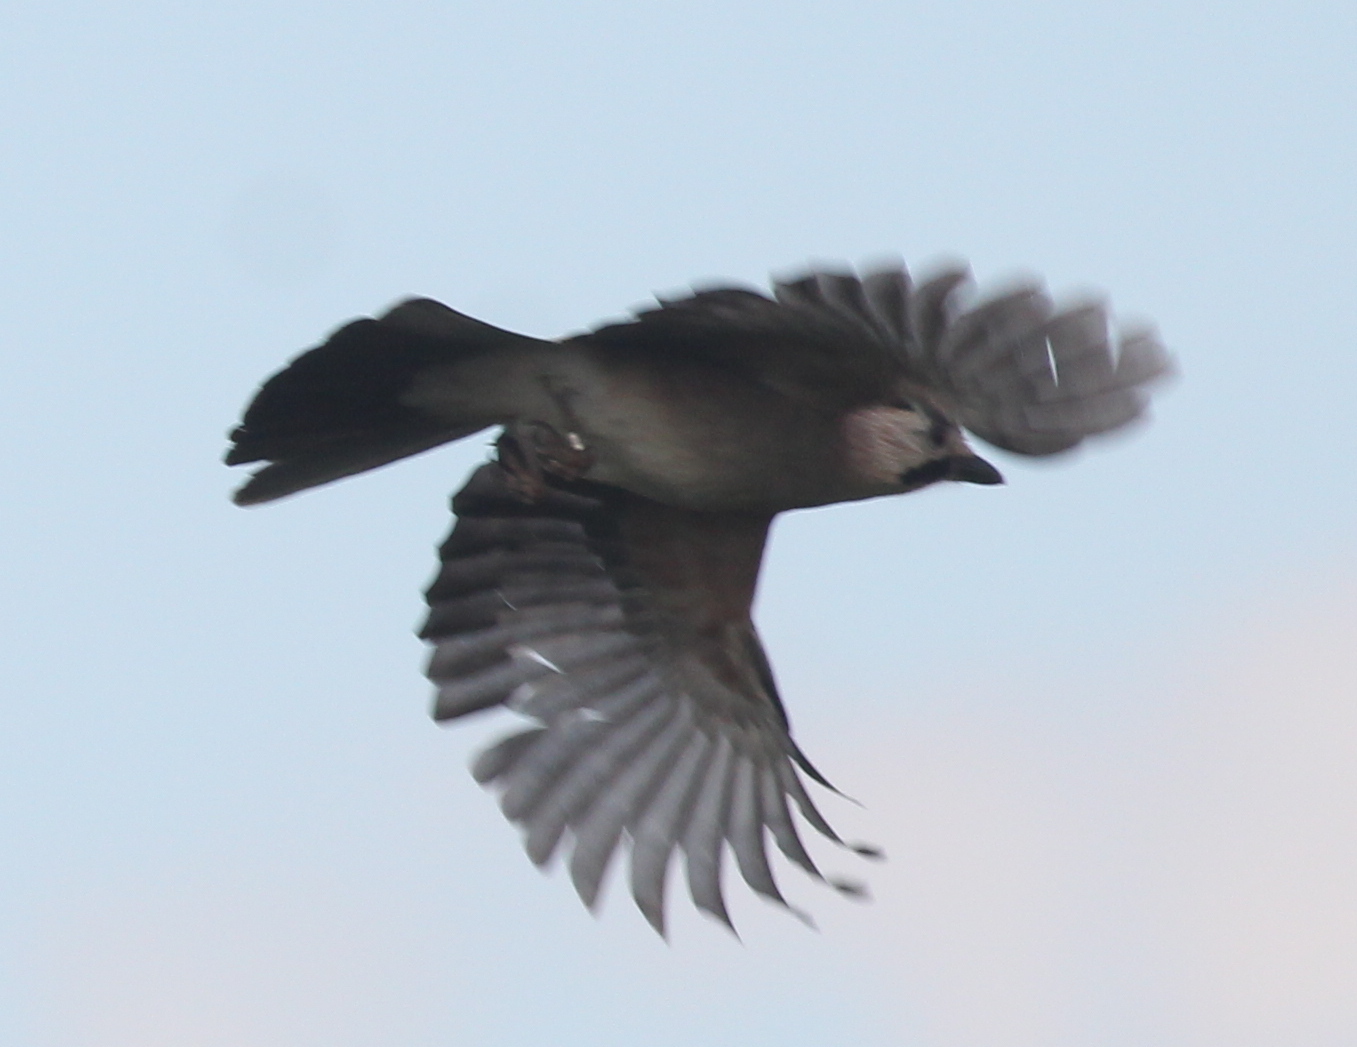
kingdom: Animalia
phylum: Chordata
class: Aves
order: Passeriformes
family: Corvidae
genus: Garrulus
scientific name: Garrulus glandarius
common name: Eurasian jay
